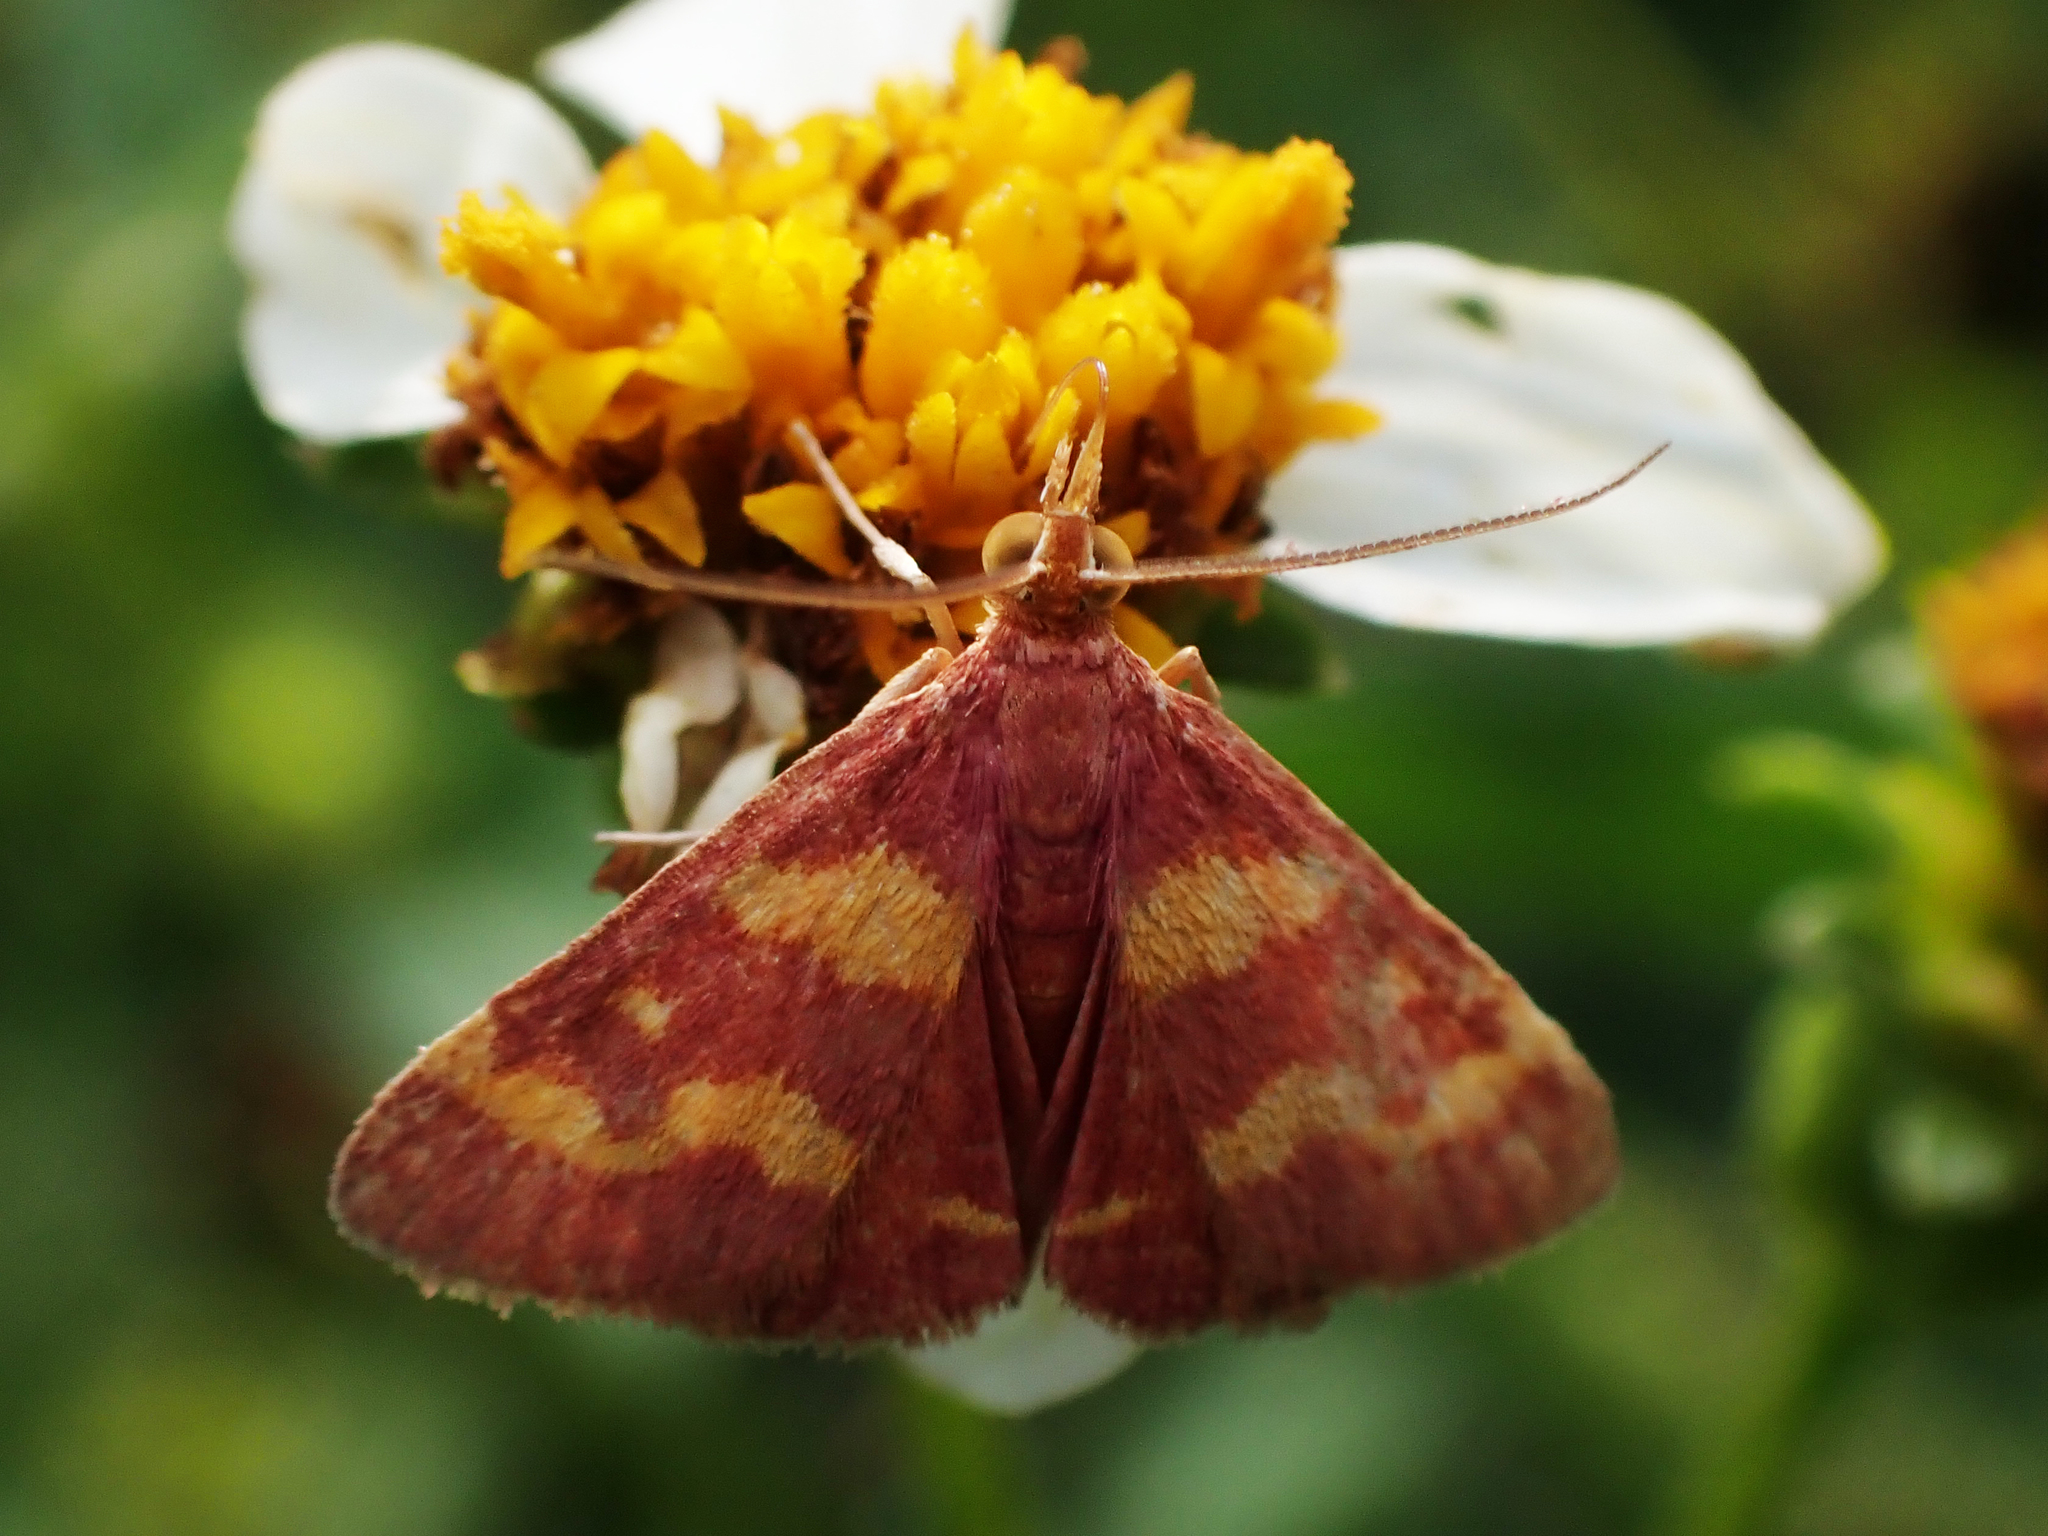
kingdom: Animalia
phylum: Arthropoda
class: Insecta
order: Lepidoptera
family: Crambidae
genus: Pyrausta
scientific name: Pyrausta tyralis
